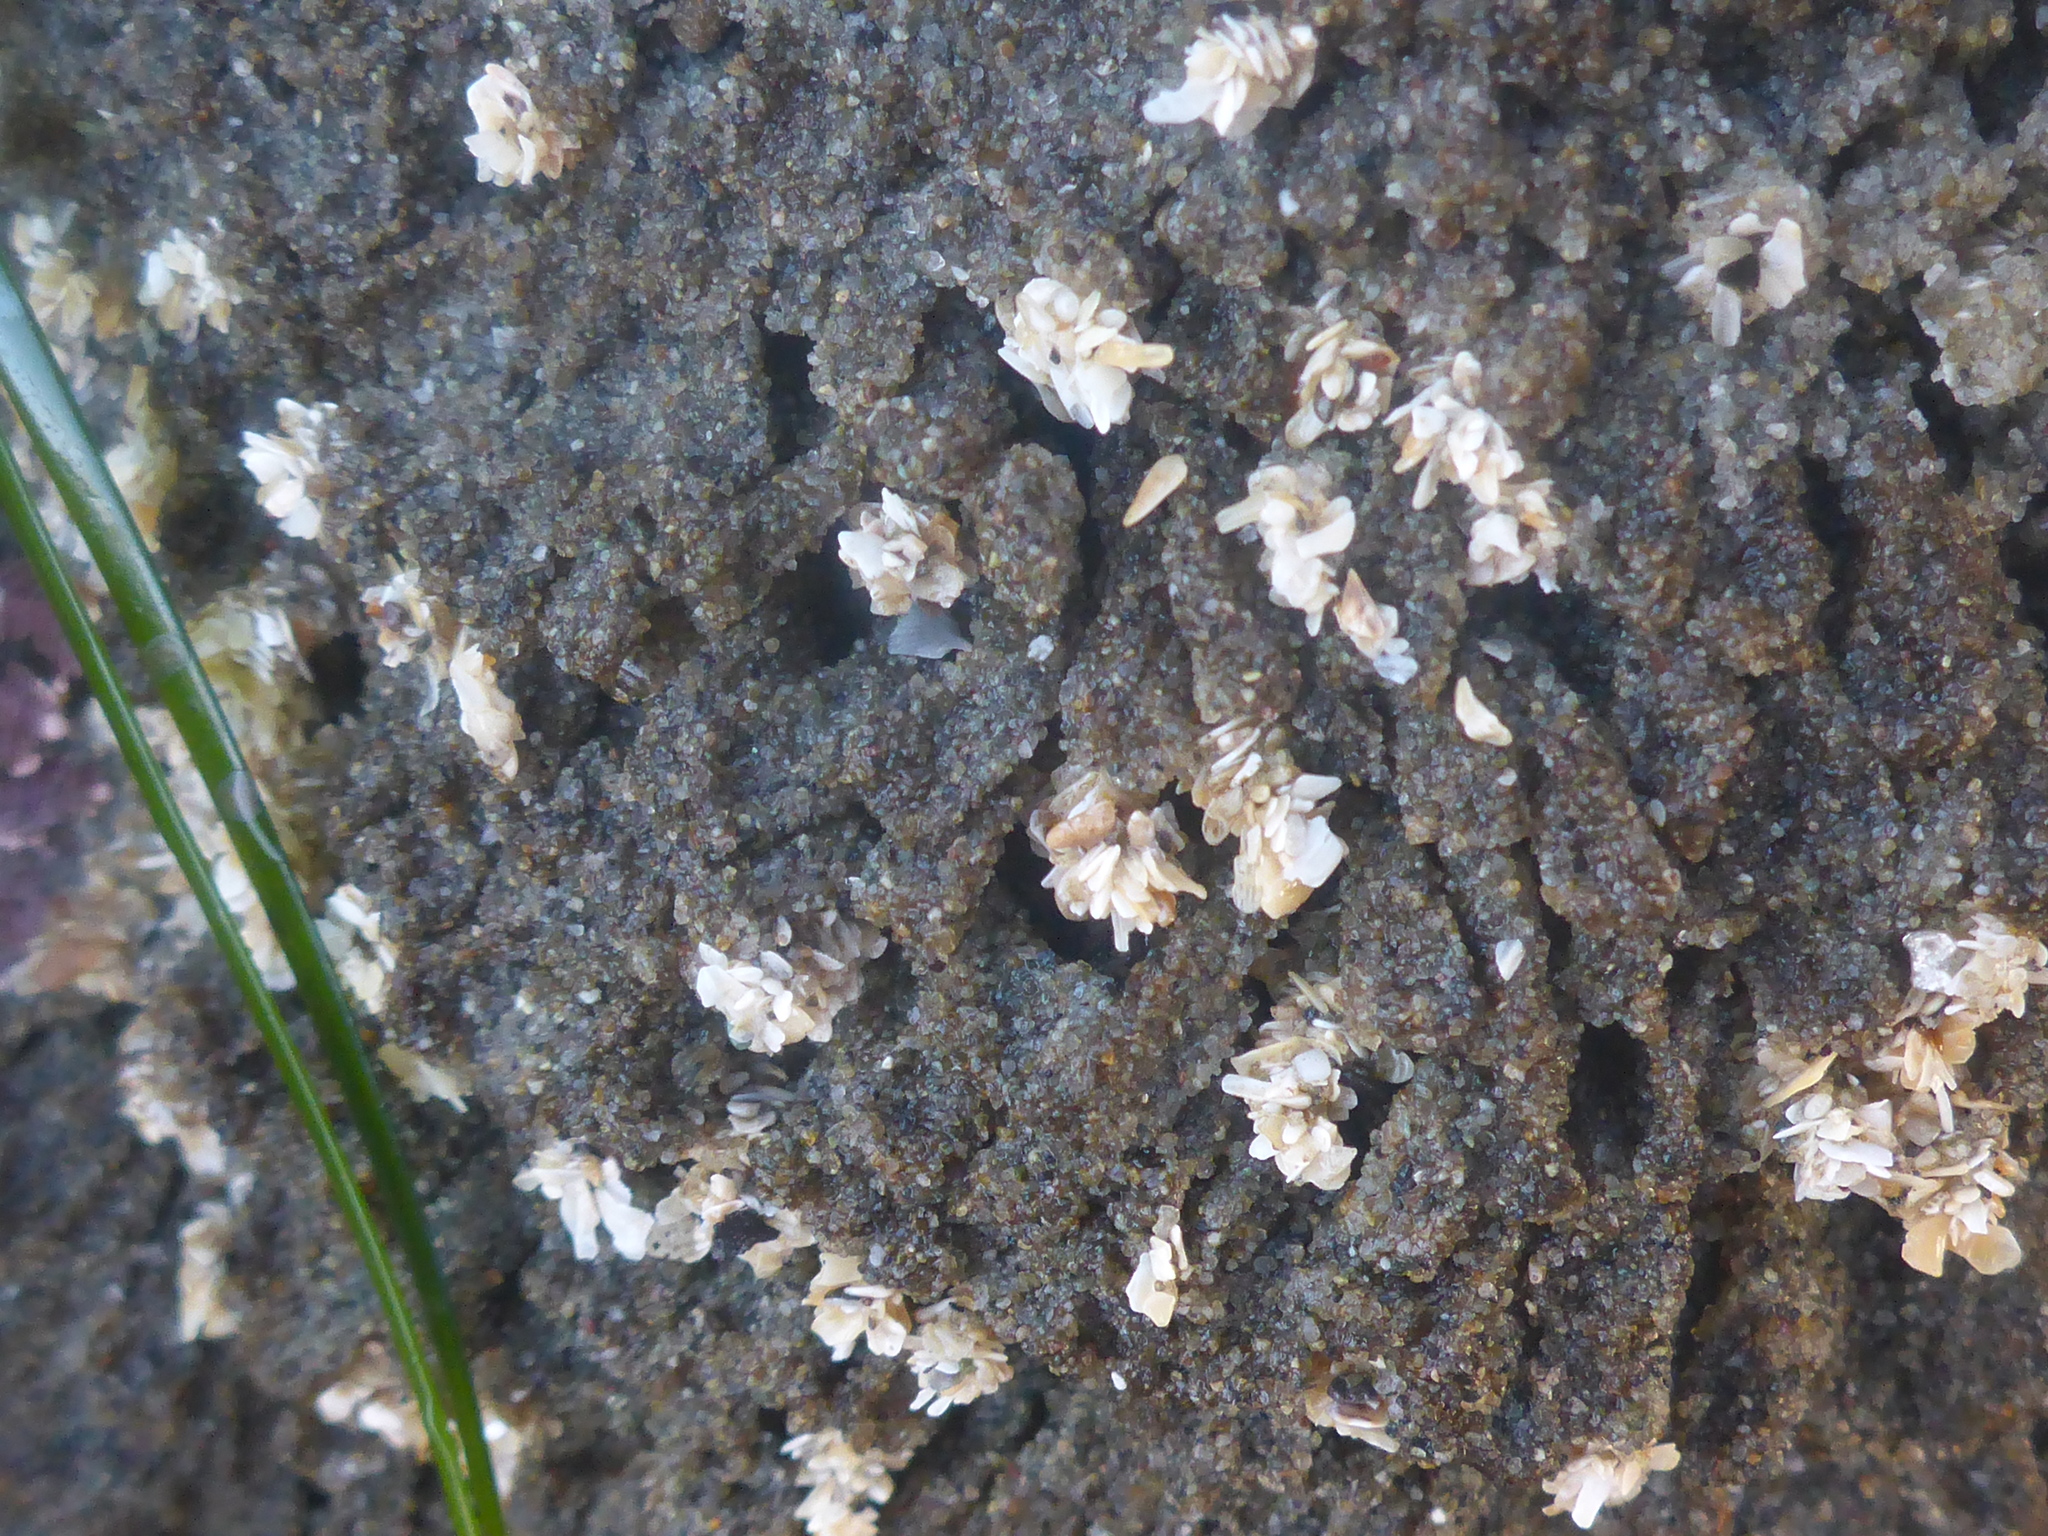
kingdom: Animalia
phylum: Annelida
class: Polychaeta
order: Sabellida
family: Sabellariidae
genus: Phragmatopoma
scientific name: Phragmatopoma californica
